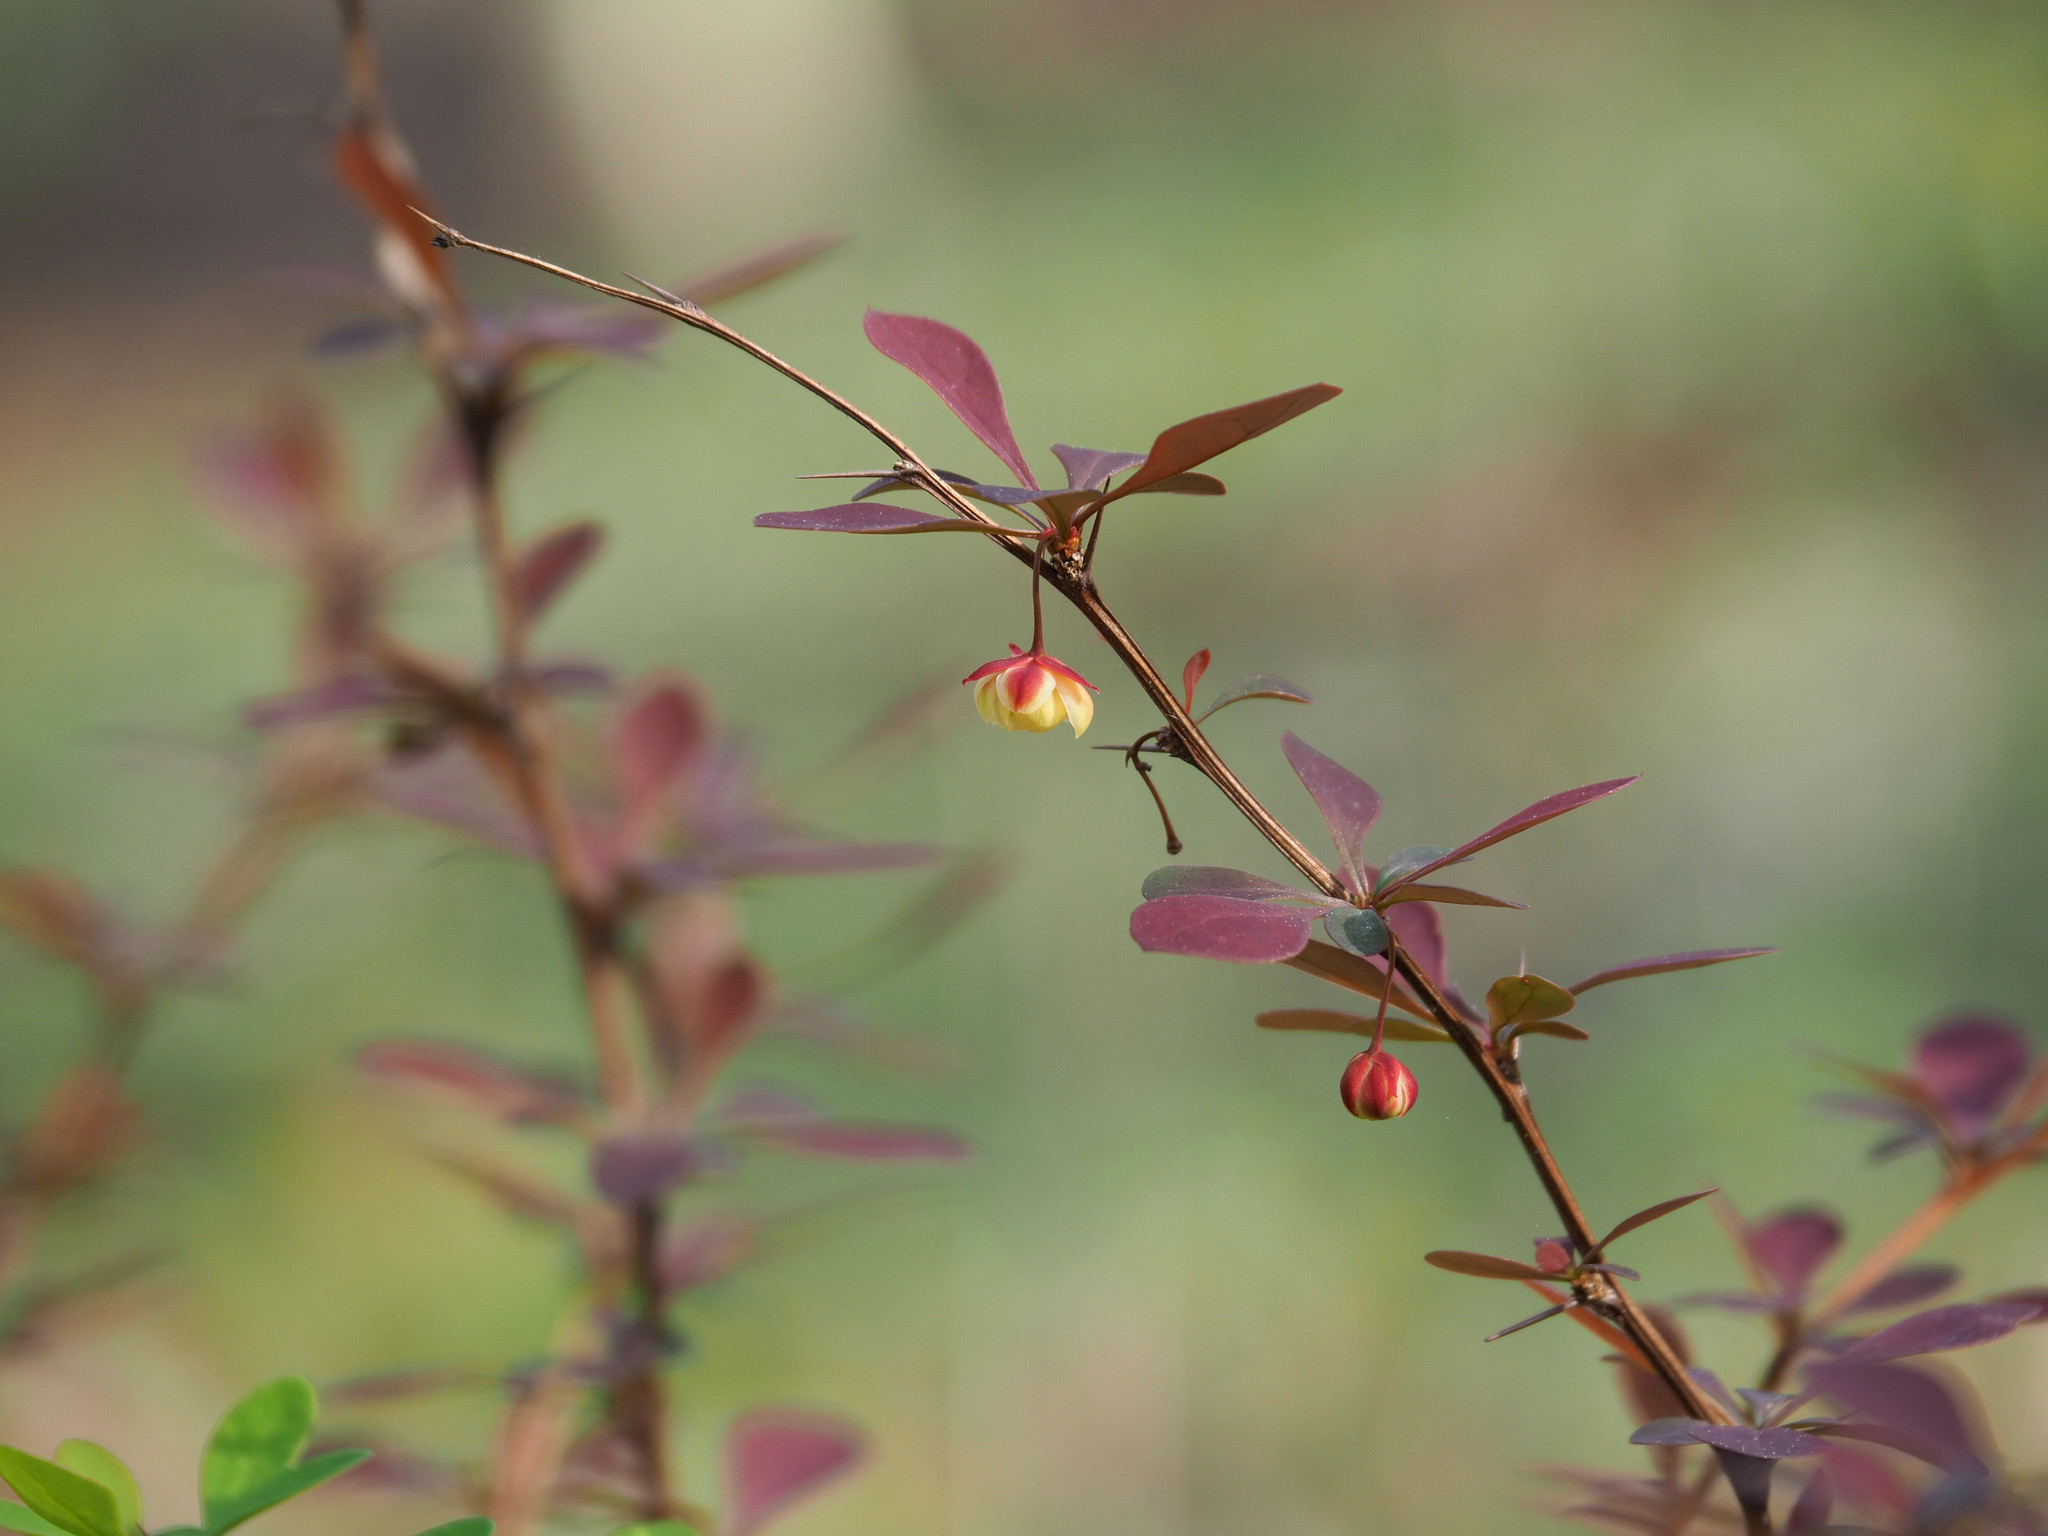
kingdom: Plantae
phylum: Tracheophyta
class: Magnoliopsida
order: Ranunculales
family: Berberidaceae
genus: Berberis
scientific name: Berberis thunbergii
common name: Japanese barberry
